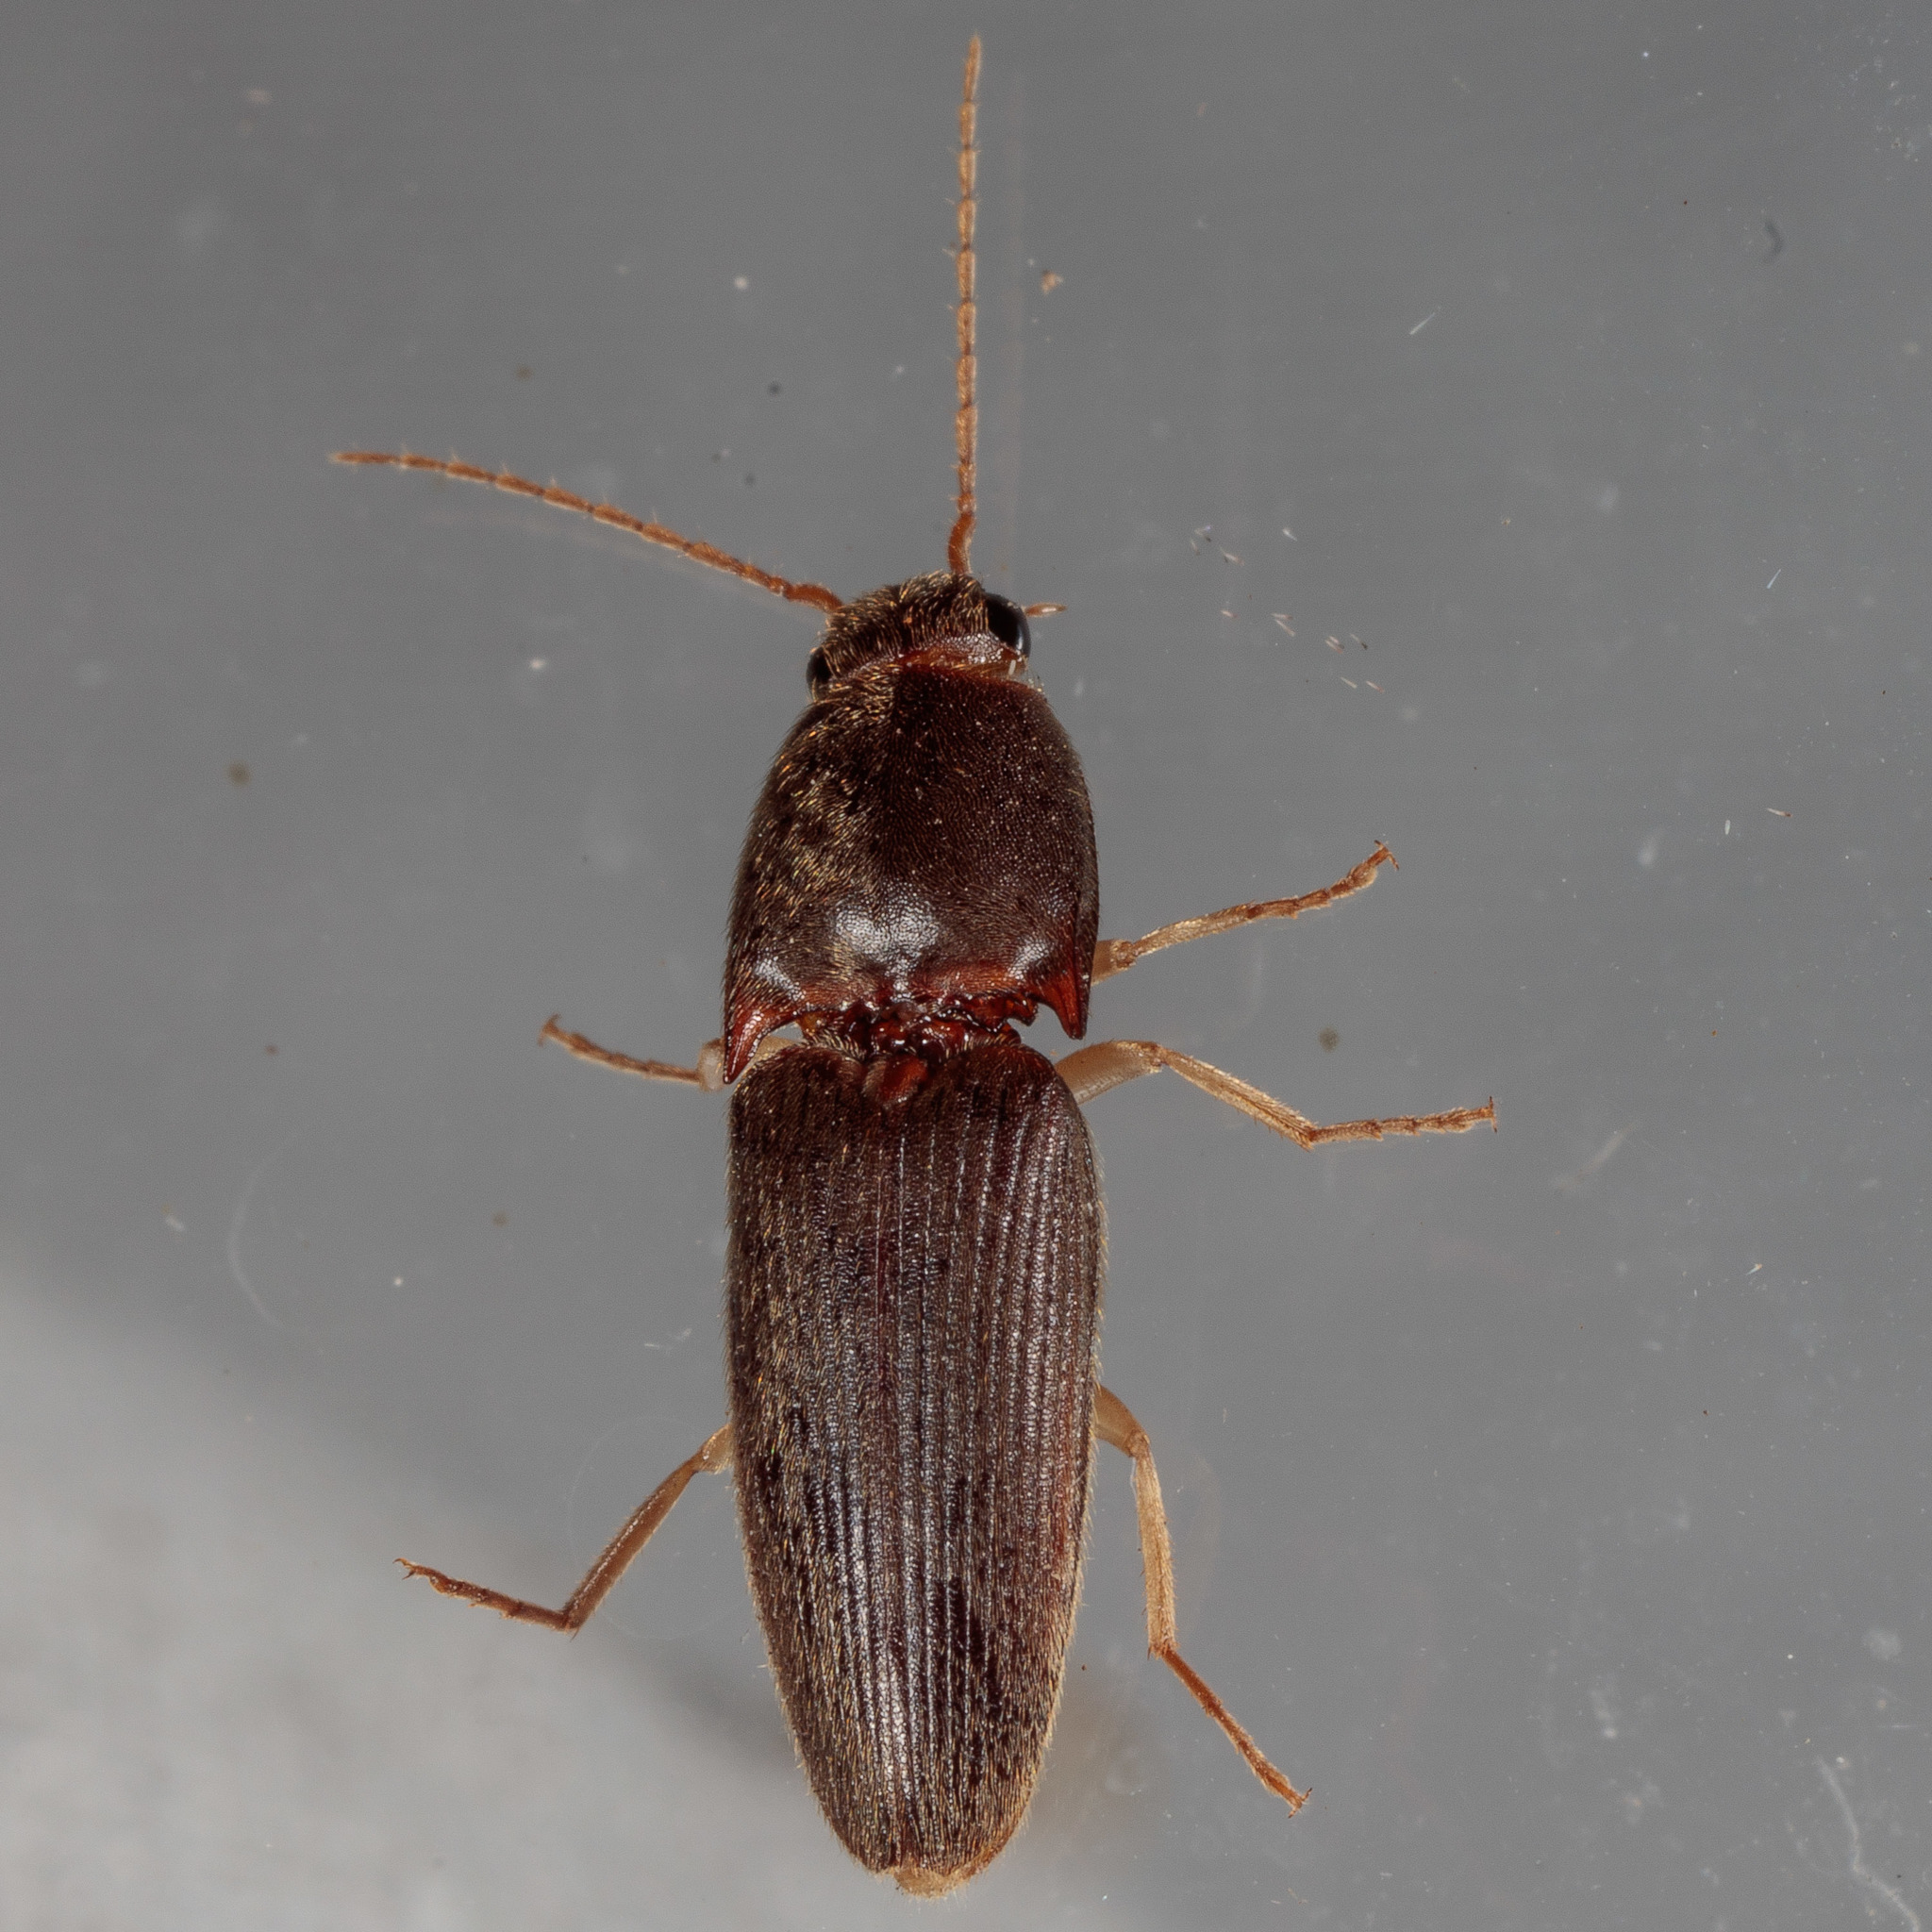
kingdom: Animalia
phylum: Arthropoda
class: Insecta
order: Coleoptera
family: Elateridae
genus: Conoderus
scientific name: Conoderus exsul
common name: Click beetle
